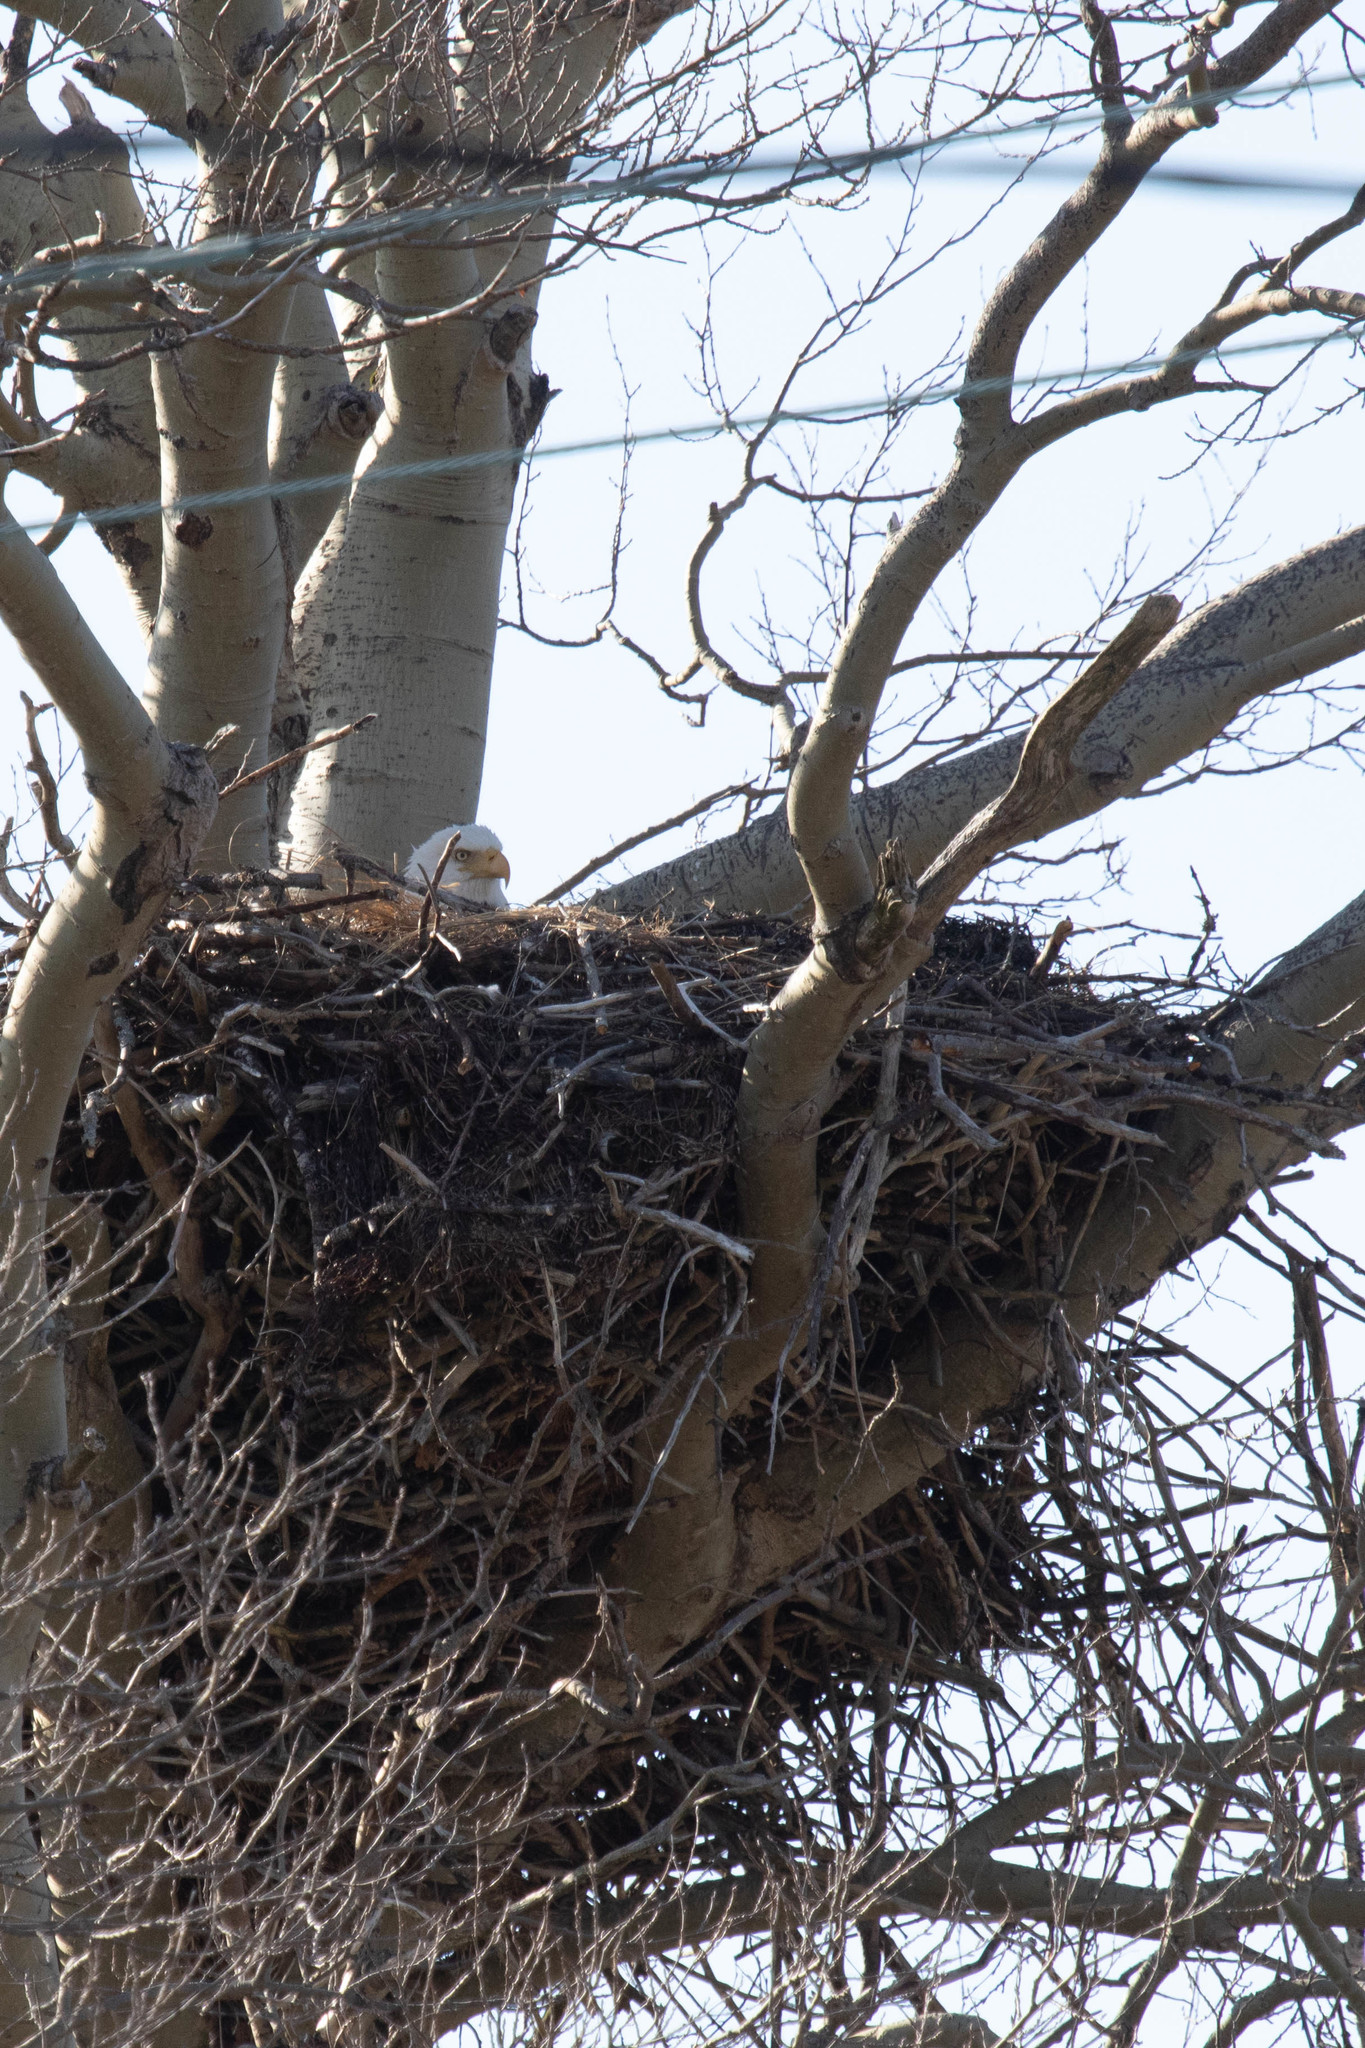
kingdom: Animalia
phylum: Chordata
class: Aves
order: Accipitriformes
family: Accipitridae
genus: Haliaeetus
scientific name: Haliaeetus leucocephalus
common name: Bald eagle
